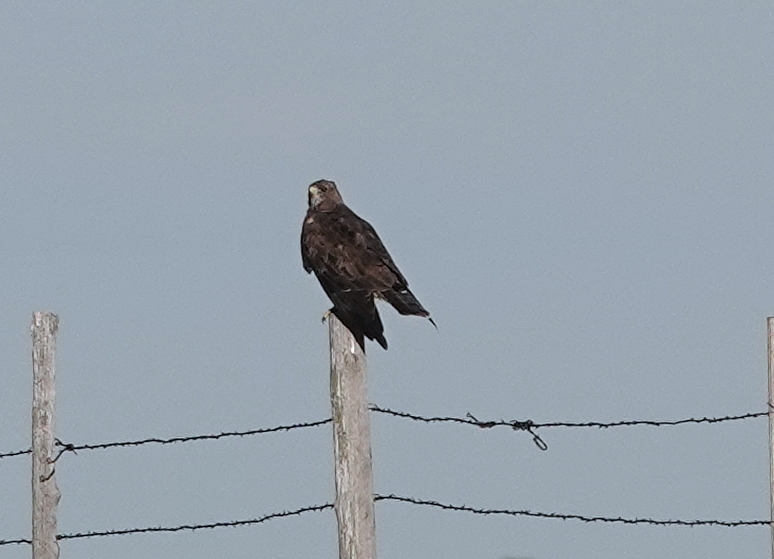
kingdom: Animalia
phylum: Chordata
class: Aves
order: Accipitriformes
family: Accipitridae
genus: Buteo
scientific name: Buteo swainsoni
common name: Swainson's hawk
